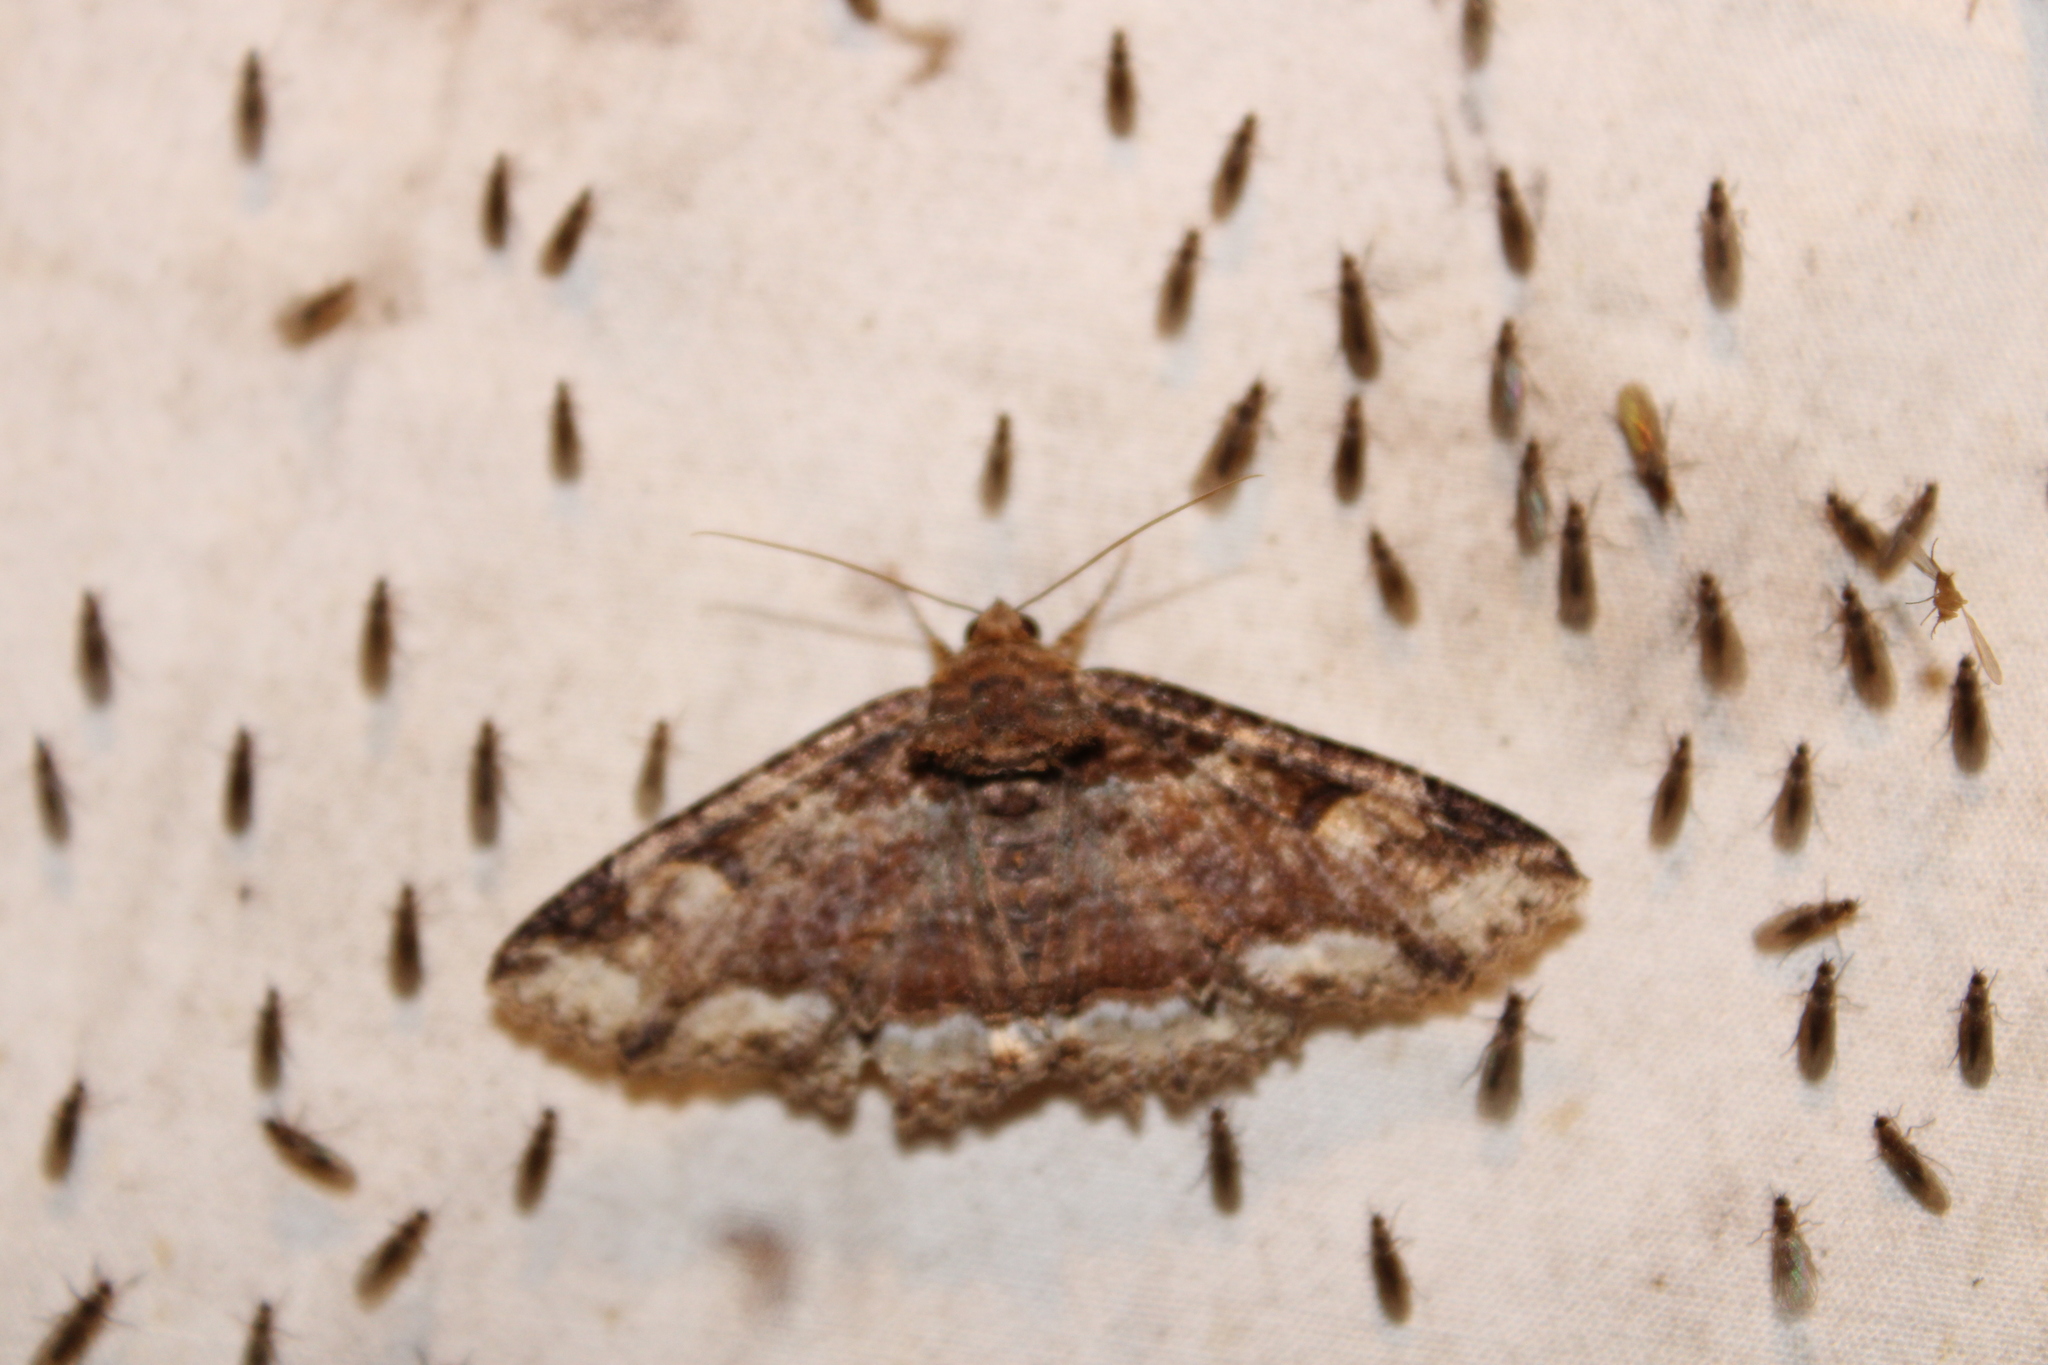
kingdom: Animalia
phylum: Arthropoda
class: Insecta
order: Lepidoptera
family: Erebidae
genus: Zale
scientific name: Zale minerea
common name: Colorful zale moth
